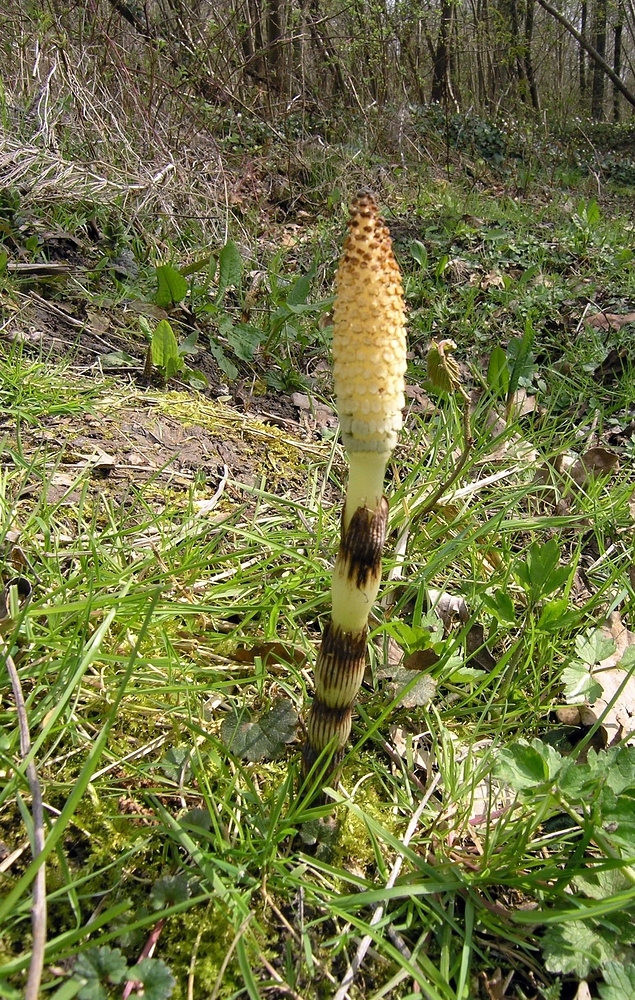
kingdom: Plantae
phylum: Tracheophyta
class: Polypodiopsida
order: Equisetales
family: Equisetaceae
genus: Equisetum
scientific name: Equisetum telmateia
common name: Great horsetail
